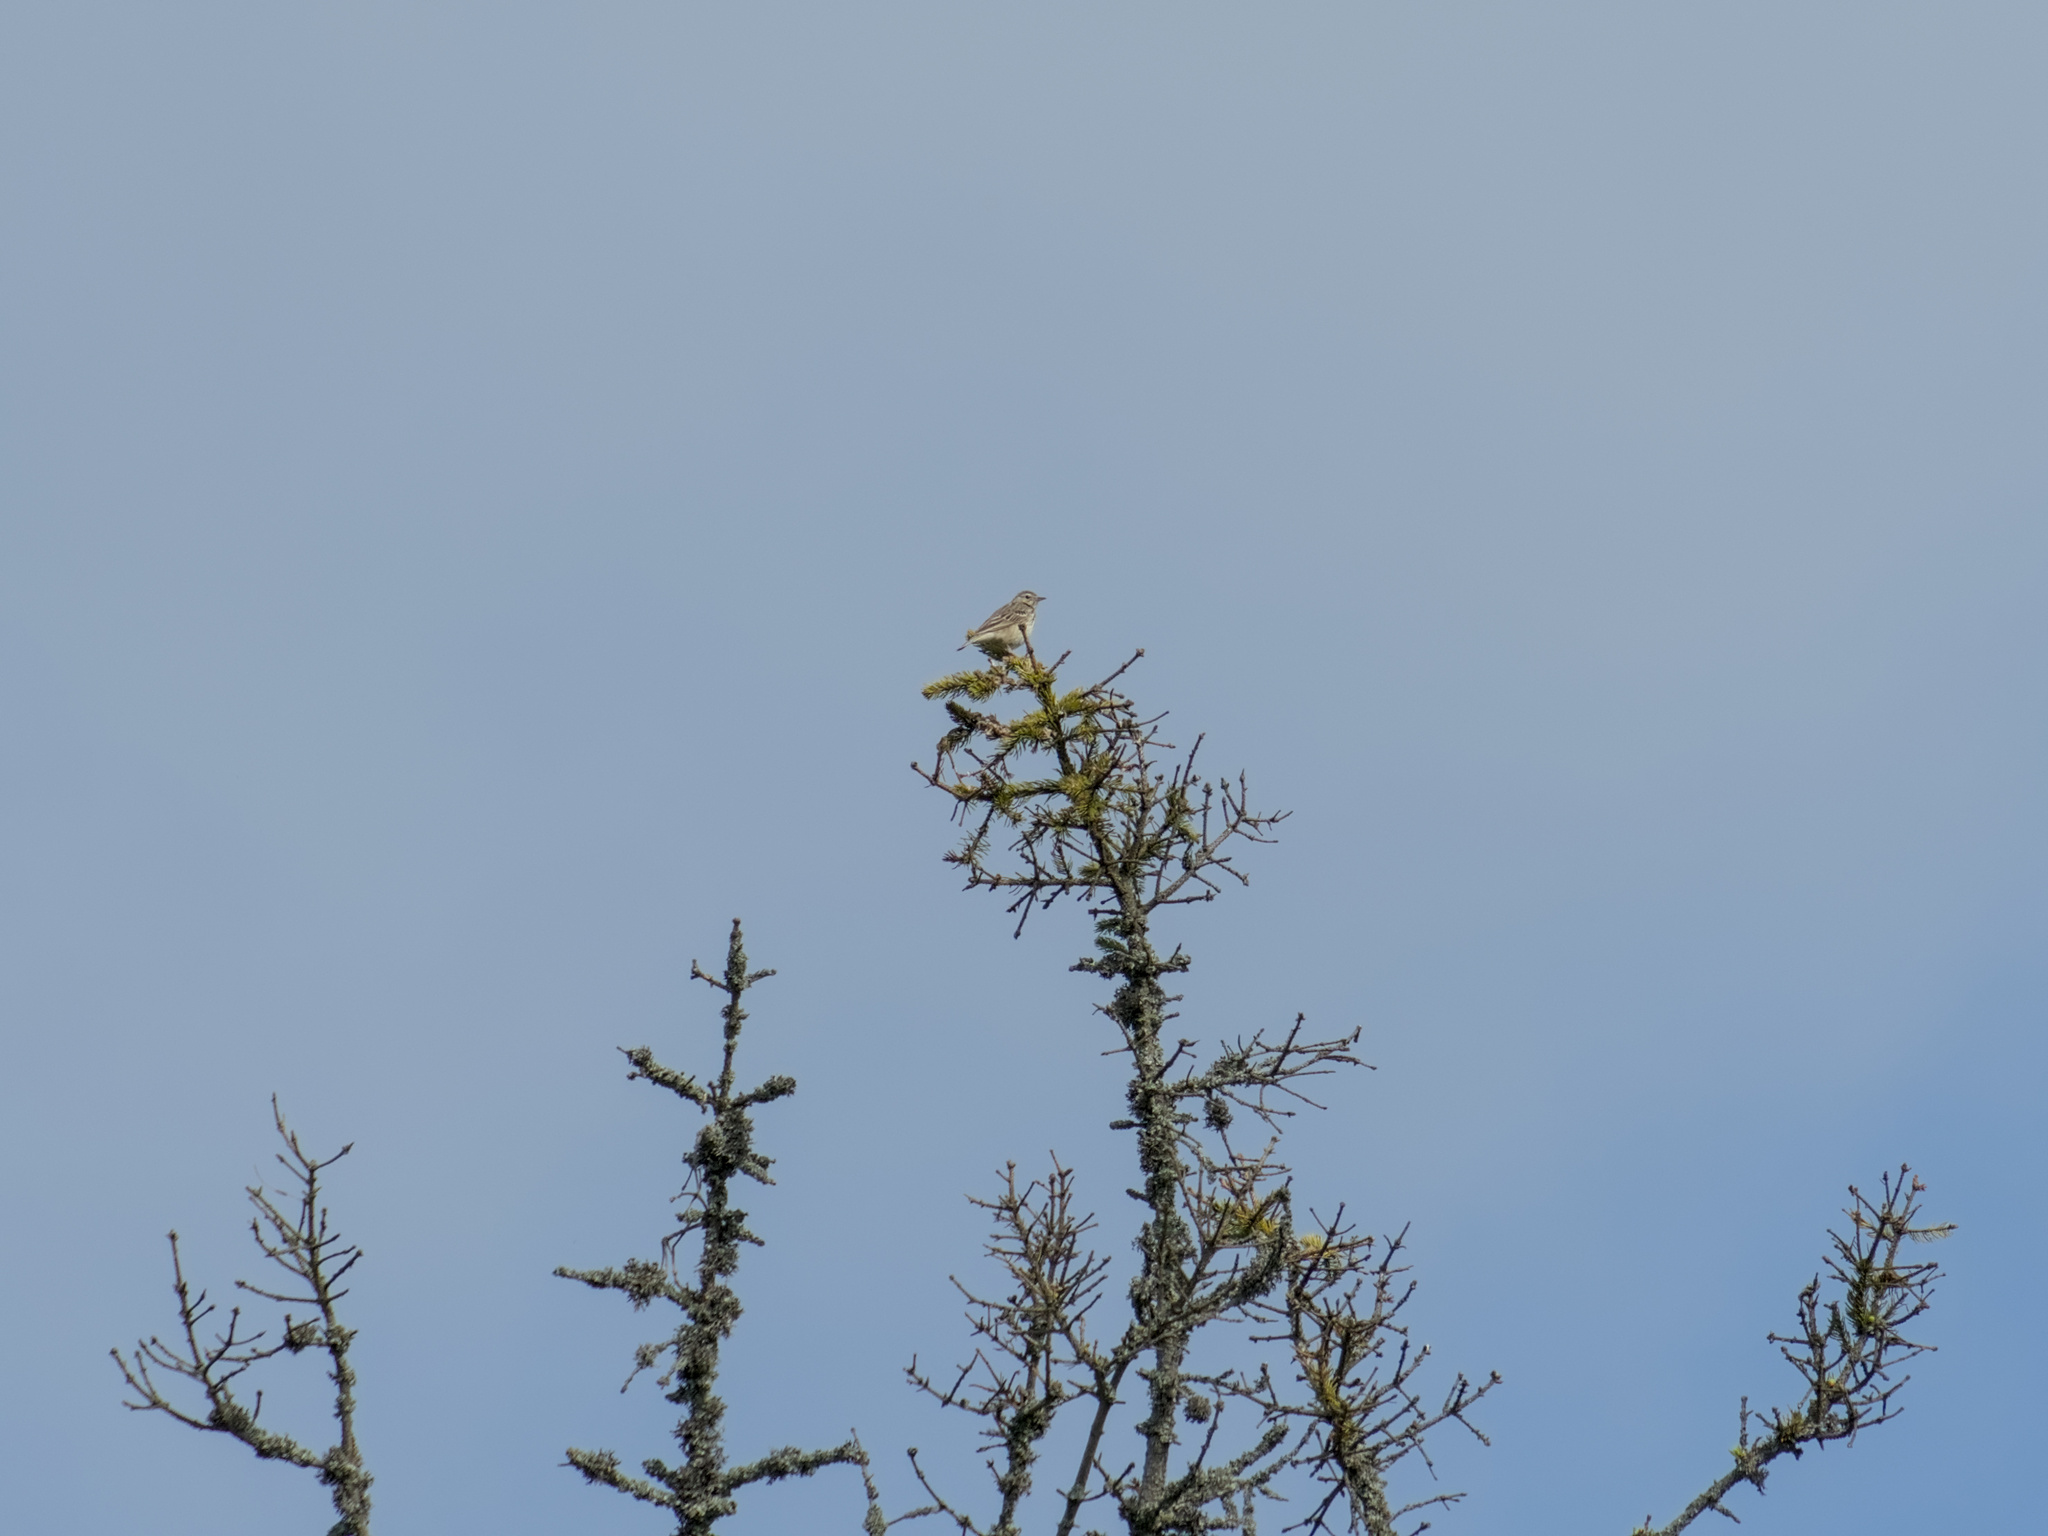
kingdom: Animalia
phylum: Chordata
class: Aves
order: Passeriformes
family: Motacillidae
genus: Anthus
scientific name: Anthus trivialis
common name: Tree pipit
